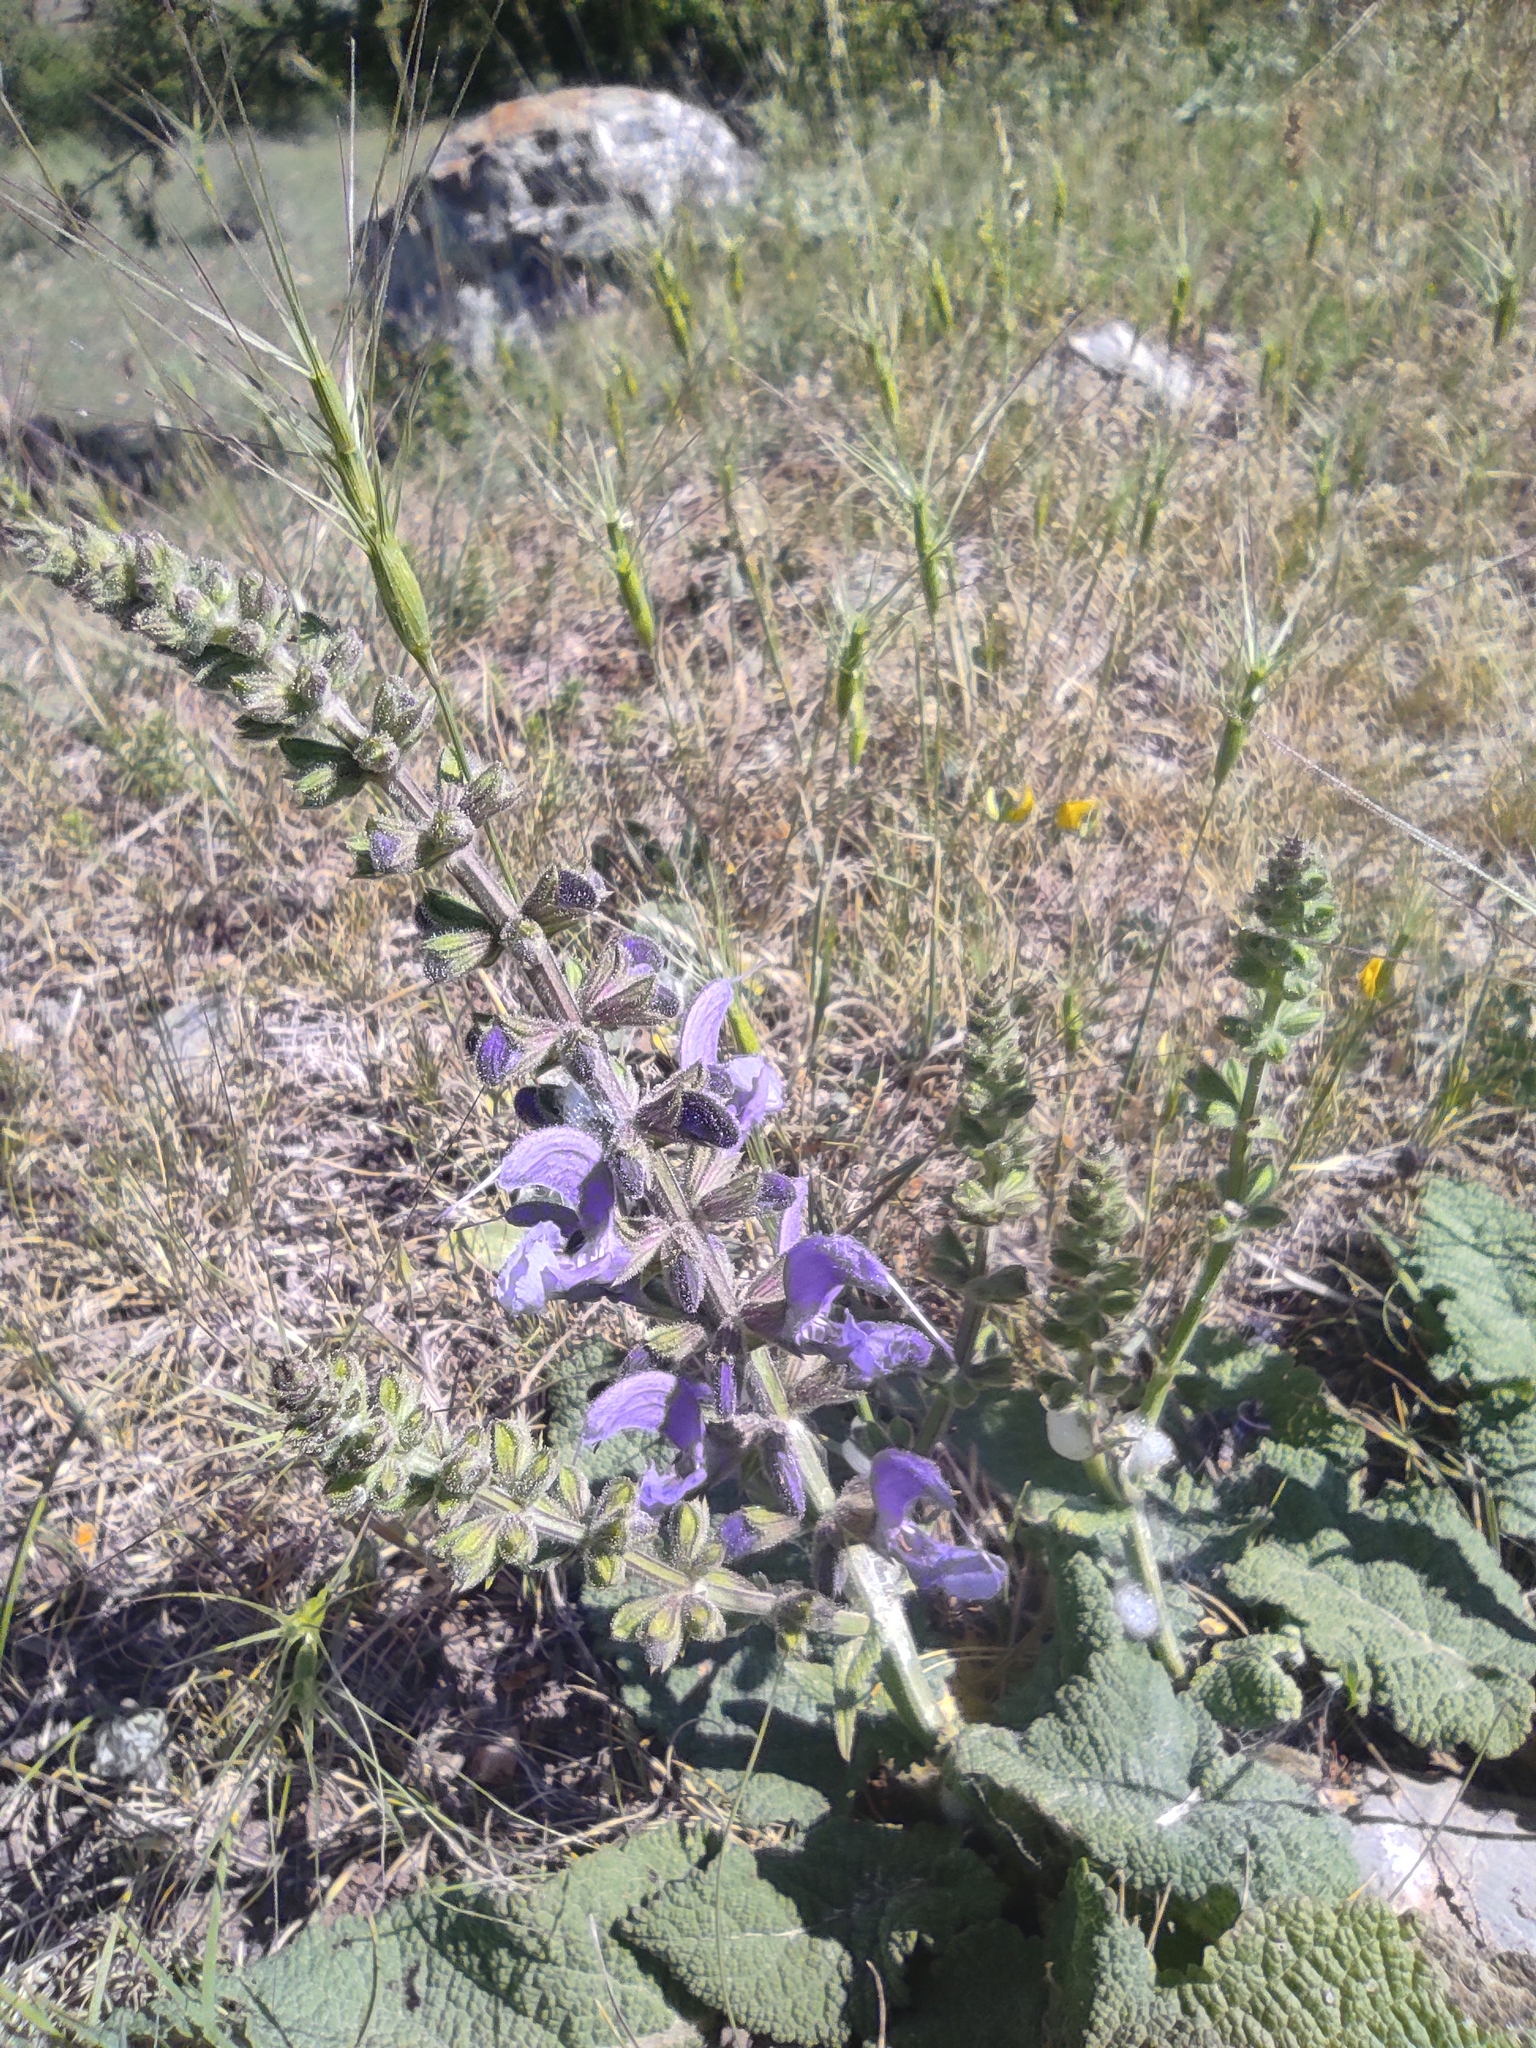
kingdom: Plantae
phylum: Tracheophyta
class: Magnoliopsida
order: Lamiales
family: Lamiaceae
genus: Salvia
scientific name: Salvia pratensis
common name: Meadow sage
